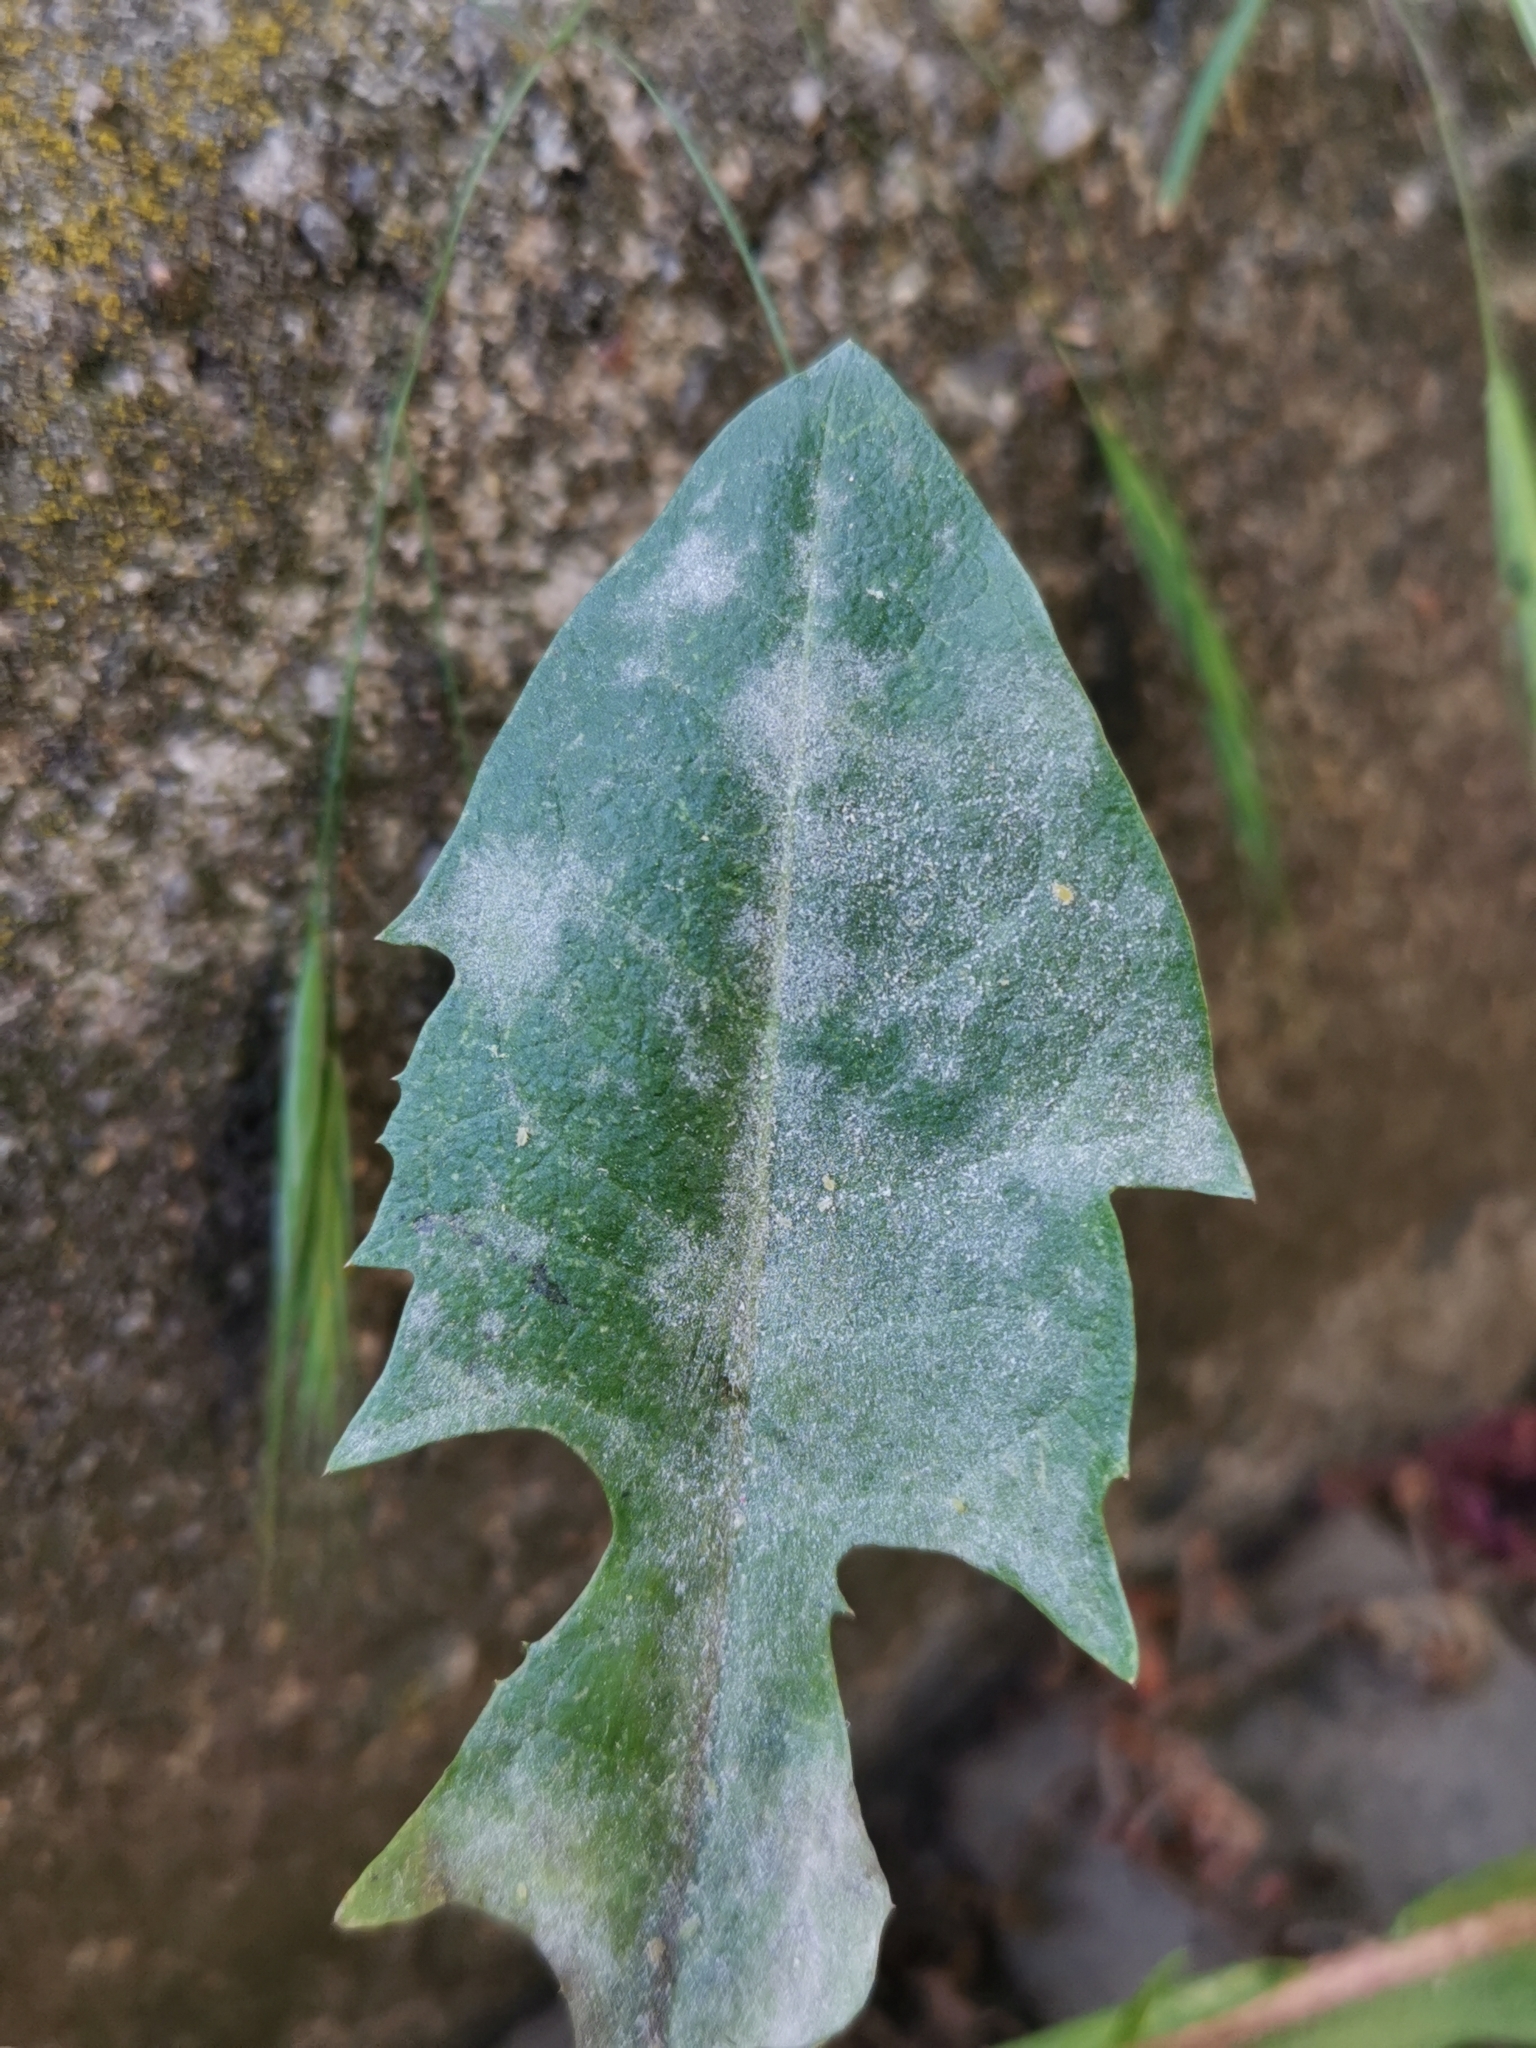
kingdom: Fungi
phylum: Ascomycota
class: Leotiomycetes
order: Helotiales
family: Erysiphaceae
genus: Podosphaera
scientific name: Podosphaera erigerontis-canadensis
